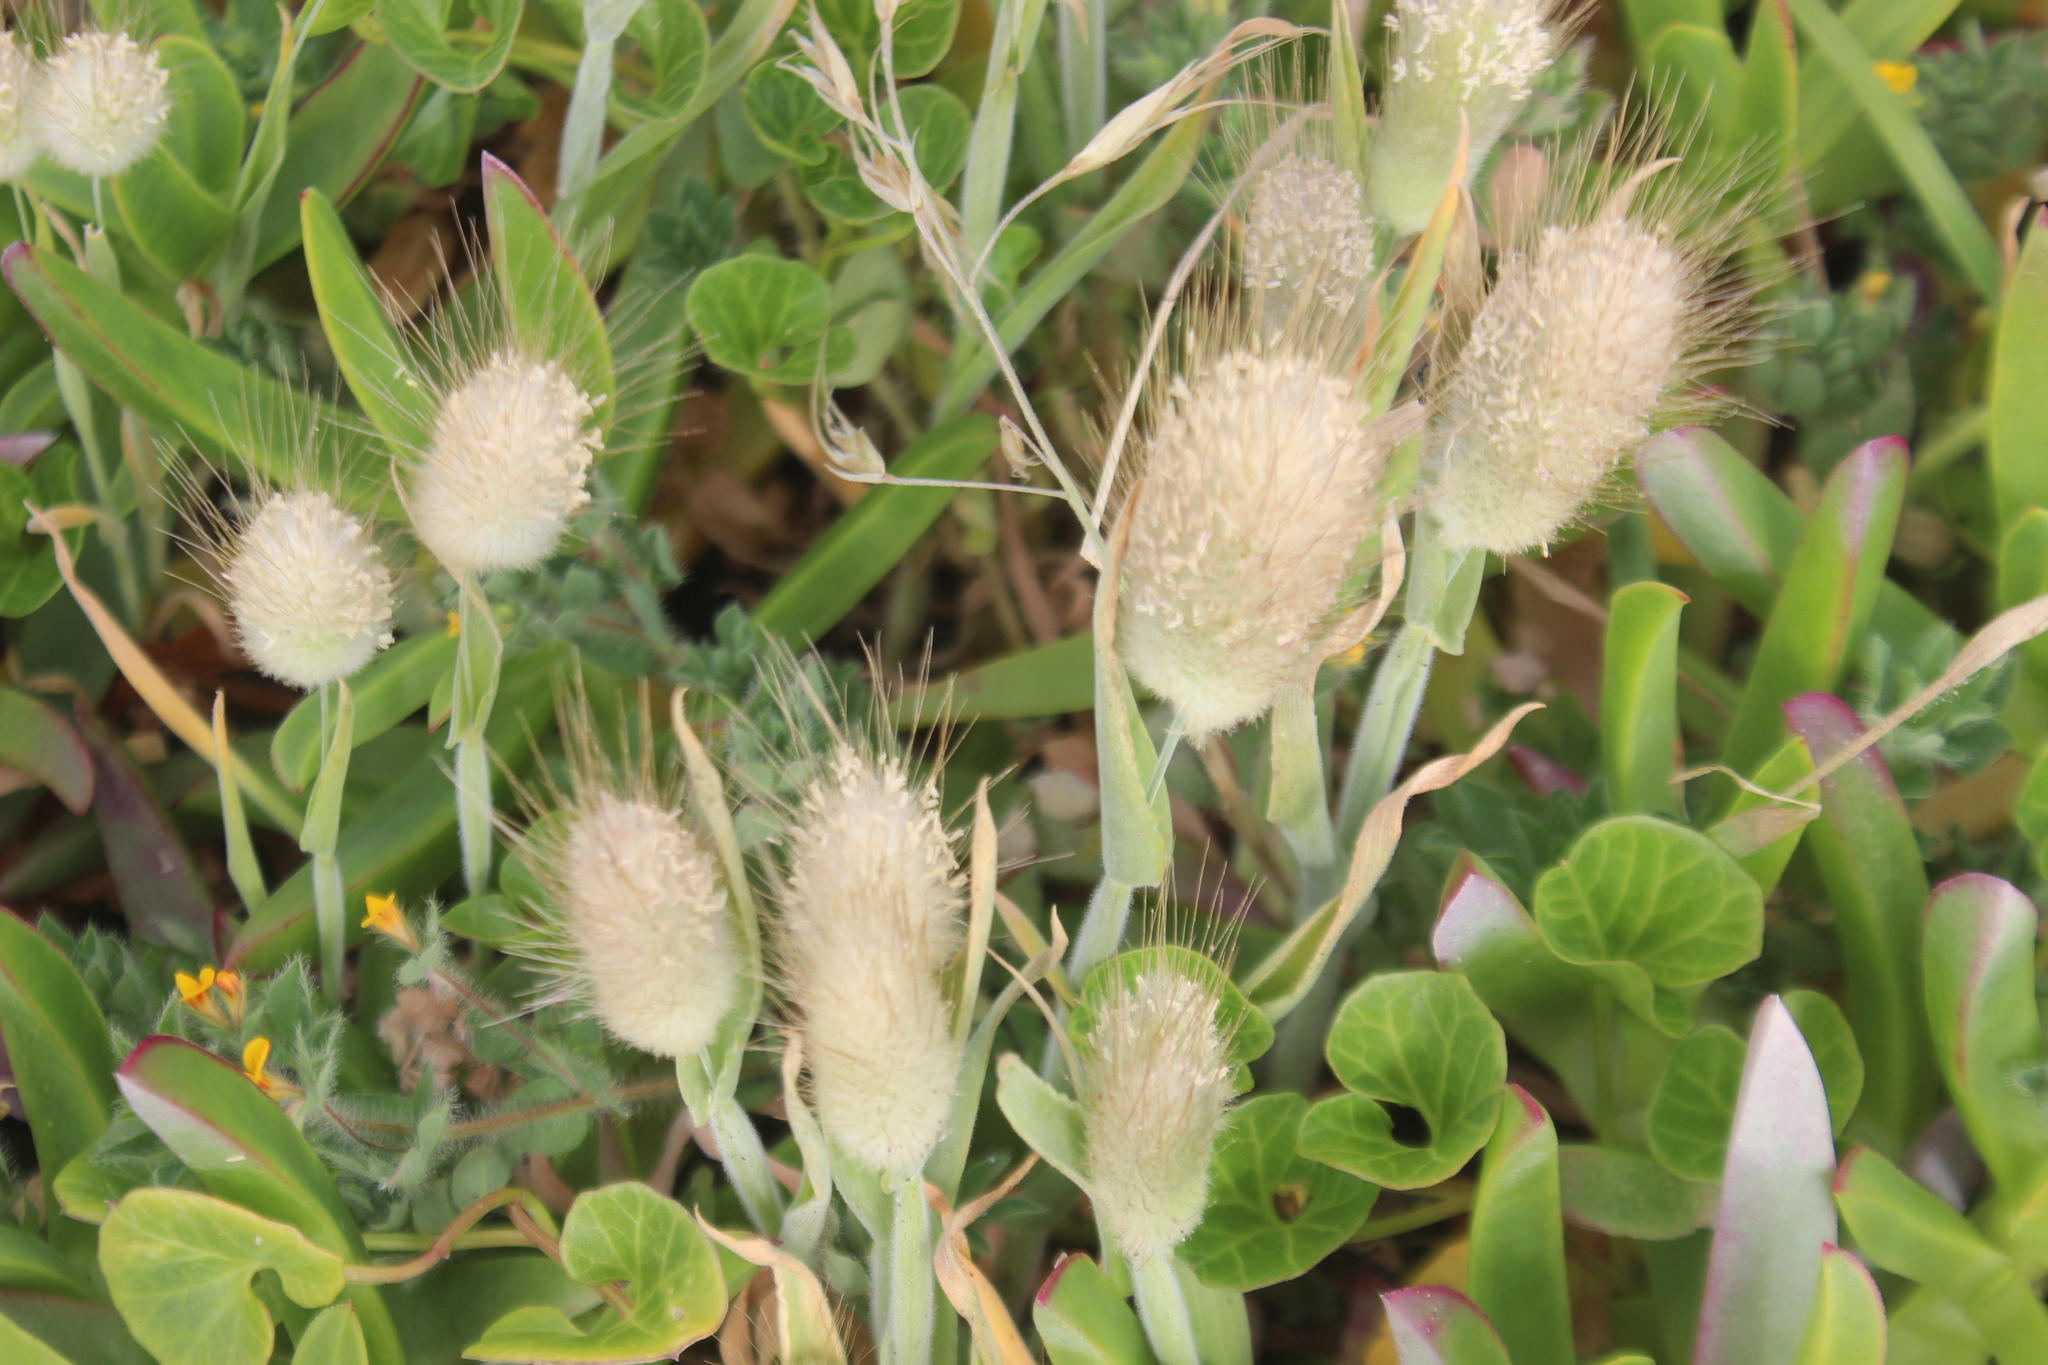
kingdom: Plantae
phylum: Tracheophyta
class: Liliopsida
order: Poales
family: Poaceae
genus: Lagurus
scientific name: Lagurus ovatus
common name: Hare's-tail
